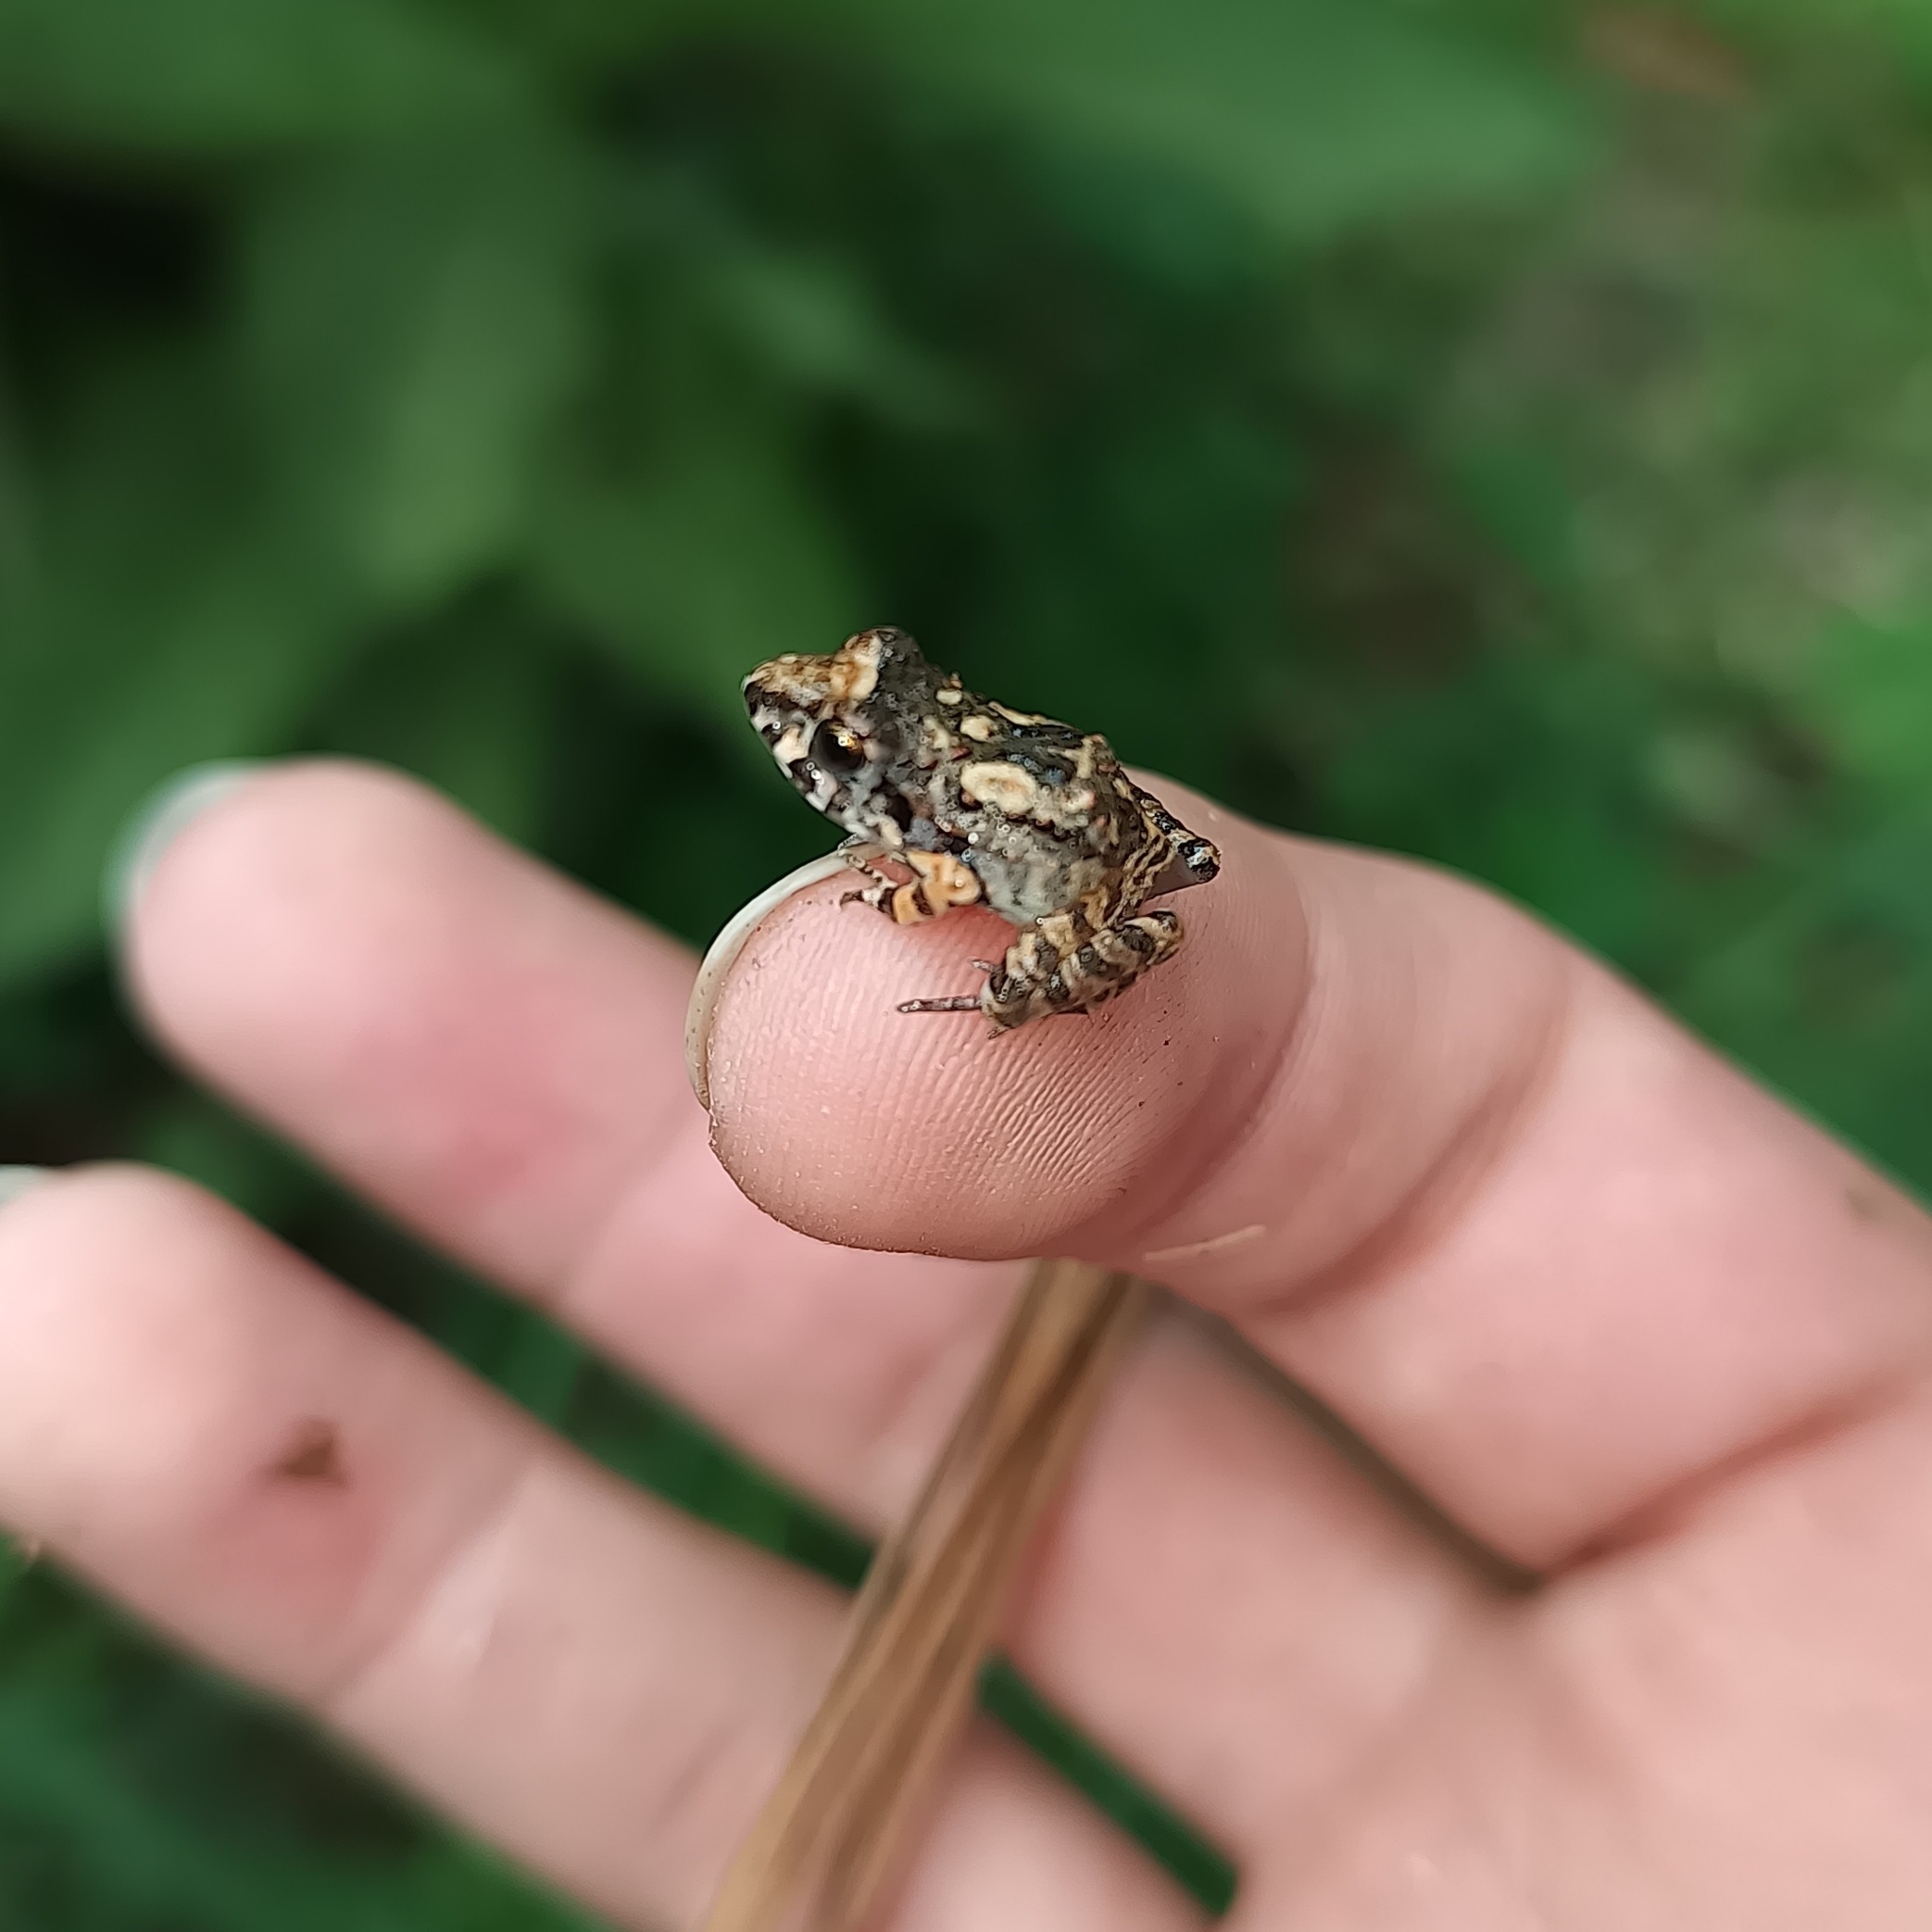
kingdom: Animalia
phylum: Chordata
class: Amphibia
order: Anura
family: Craugastoridae
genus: Craugastor
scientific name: Craugastor occidentalis
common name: Taylor's barking frog
